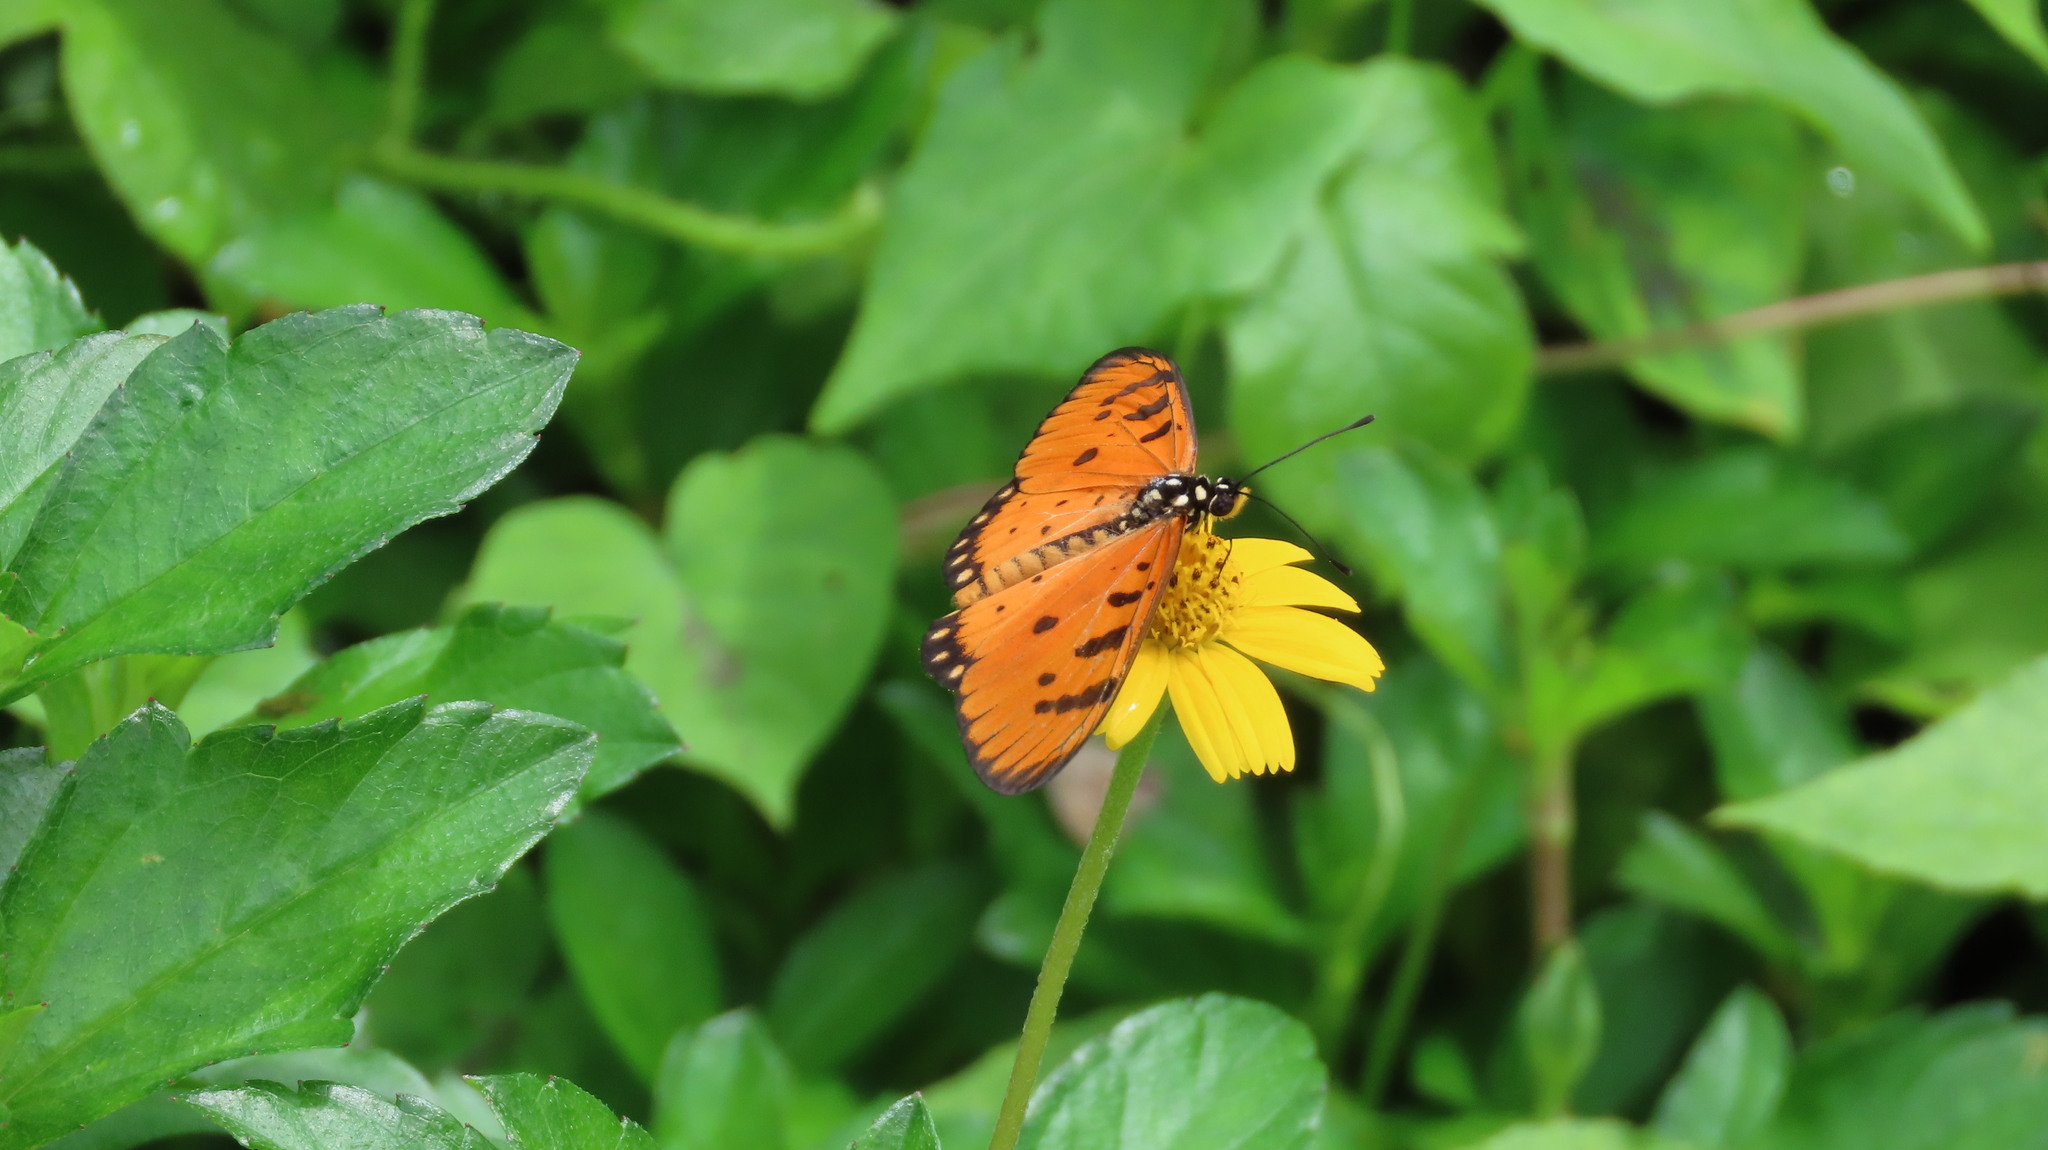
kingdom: Animalia
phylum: Arthropoda
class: Insecta
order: Lepidoptera
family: Nymphalidae
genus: Acraea
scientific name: Acraea terpsicore
